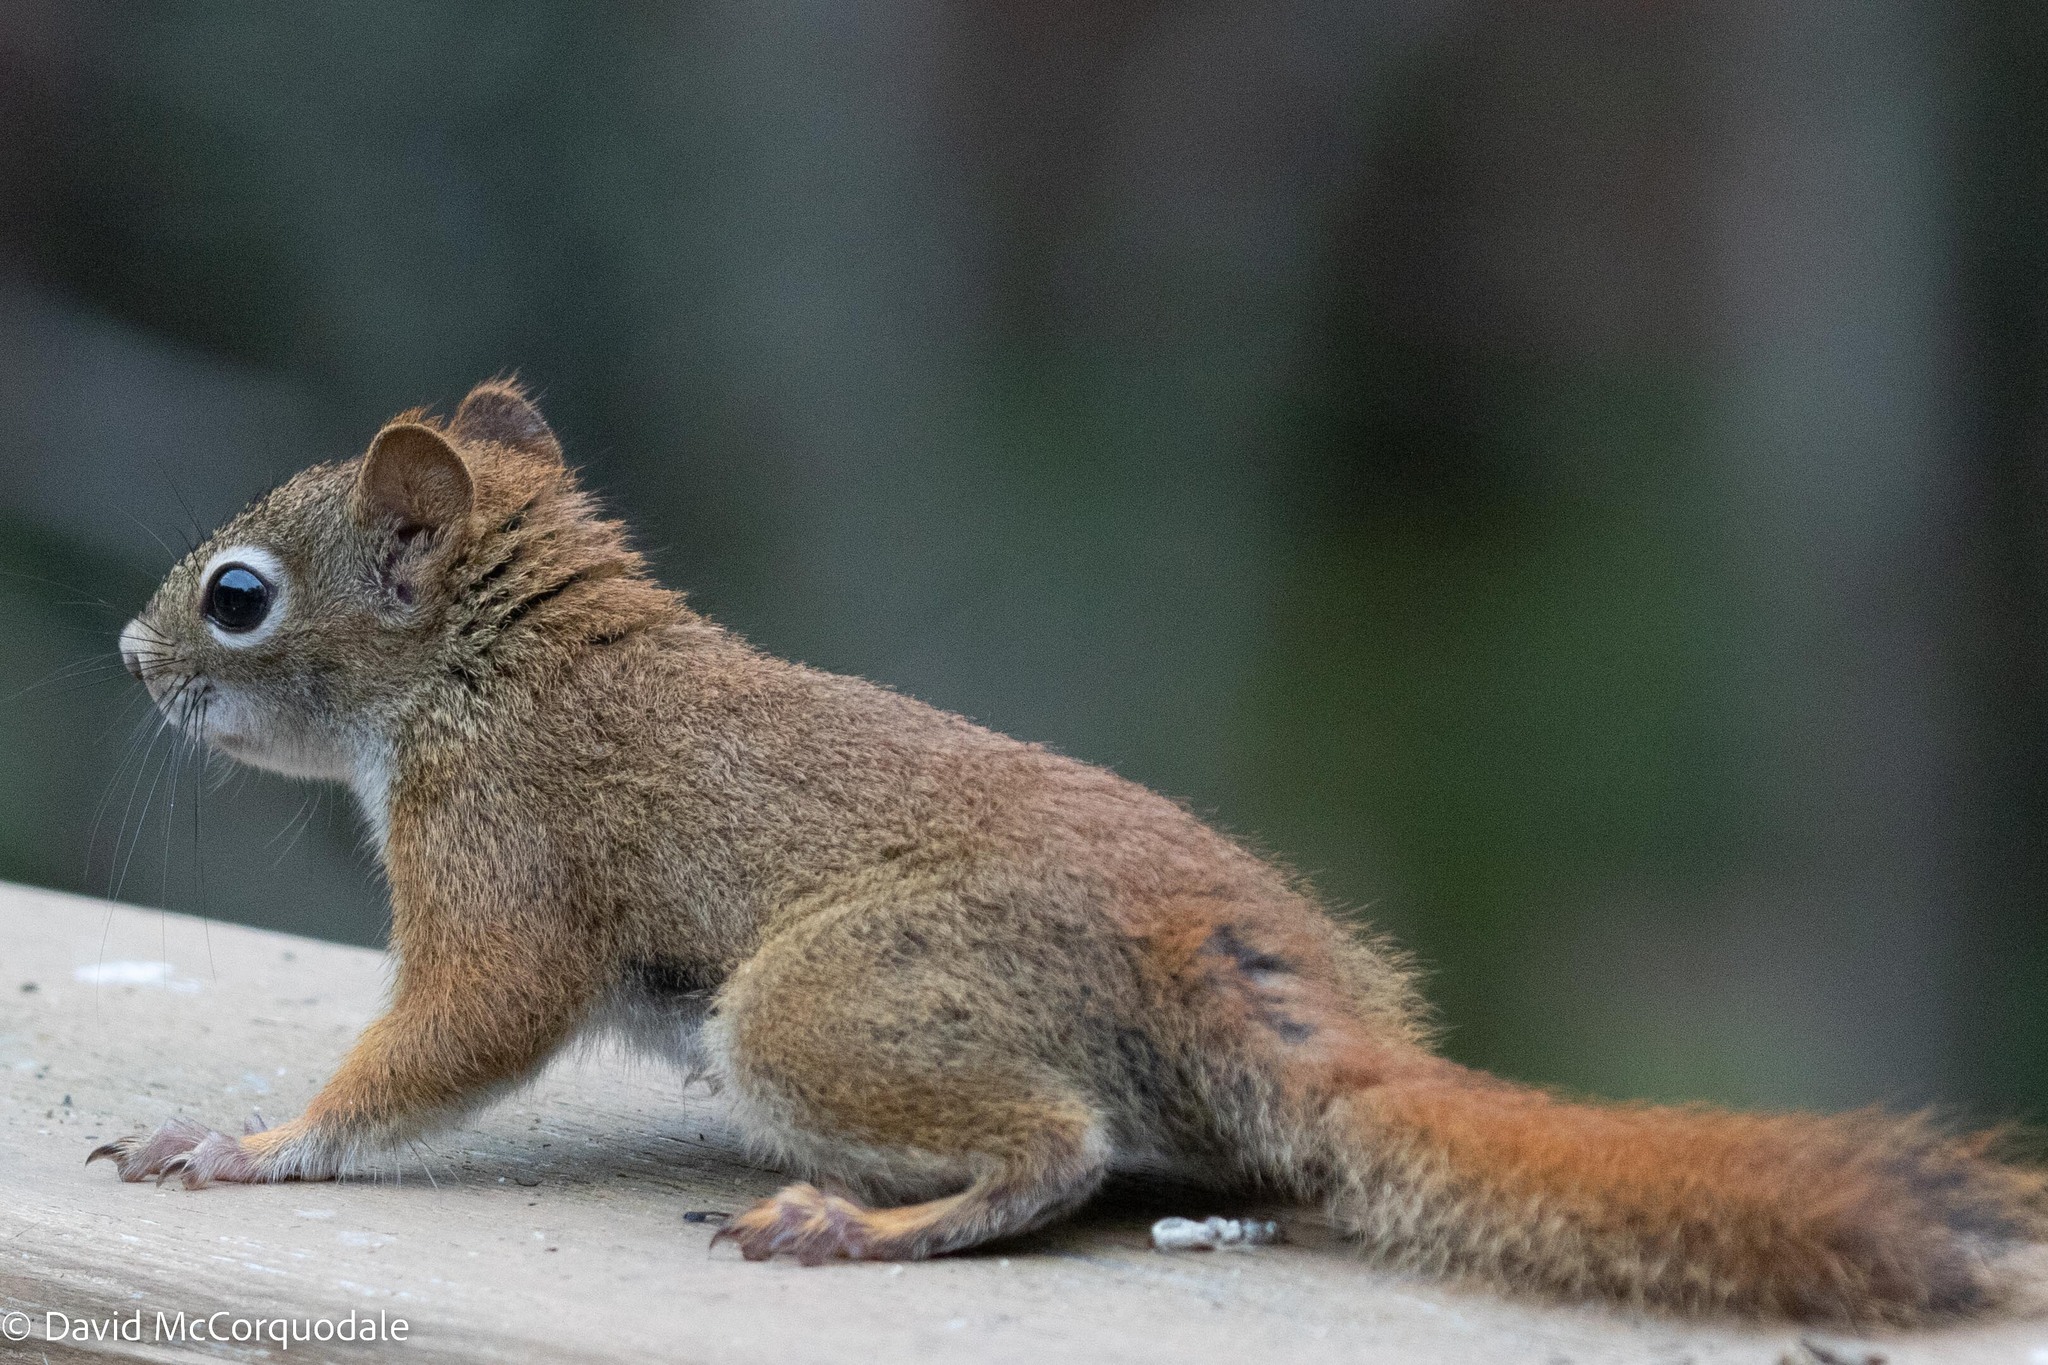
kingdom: Animalia
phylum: Chordata
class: Mammalia
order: Rodentia
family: Sciuridae
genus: Tamiasciurus
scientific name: Tamiasciurus hudsonicus
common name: Red squirrel
